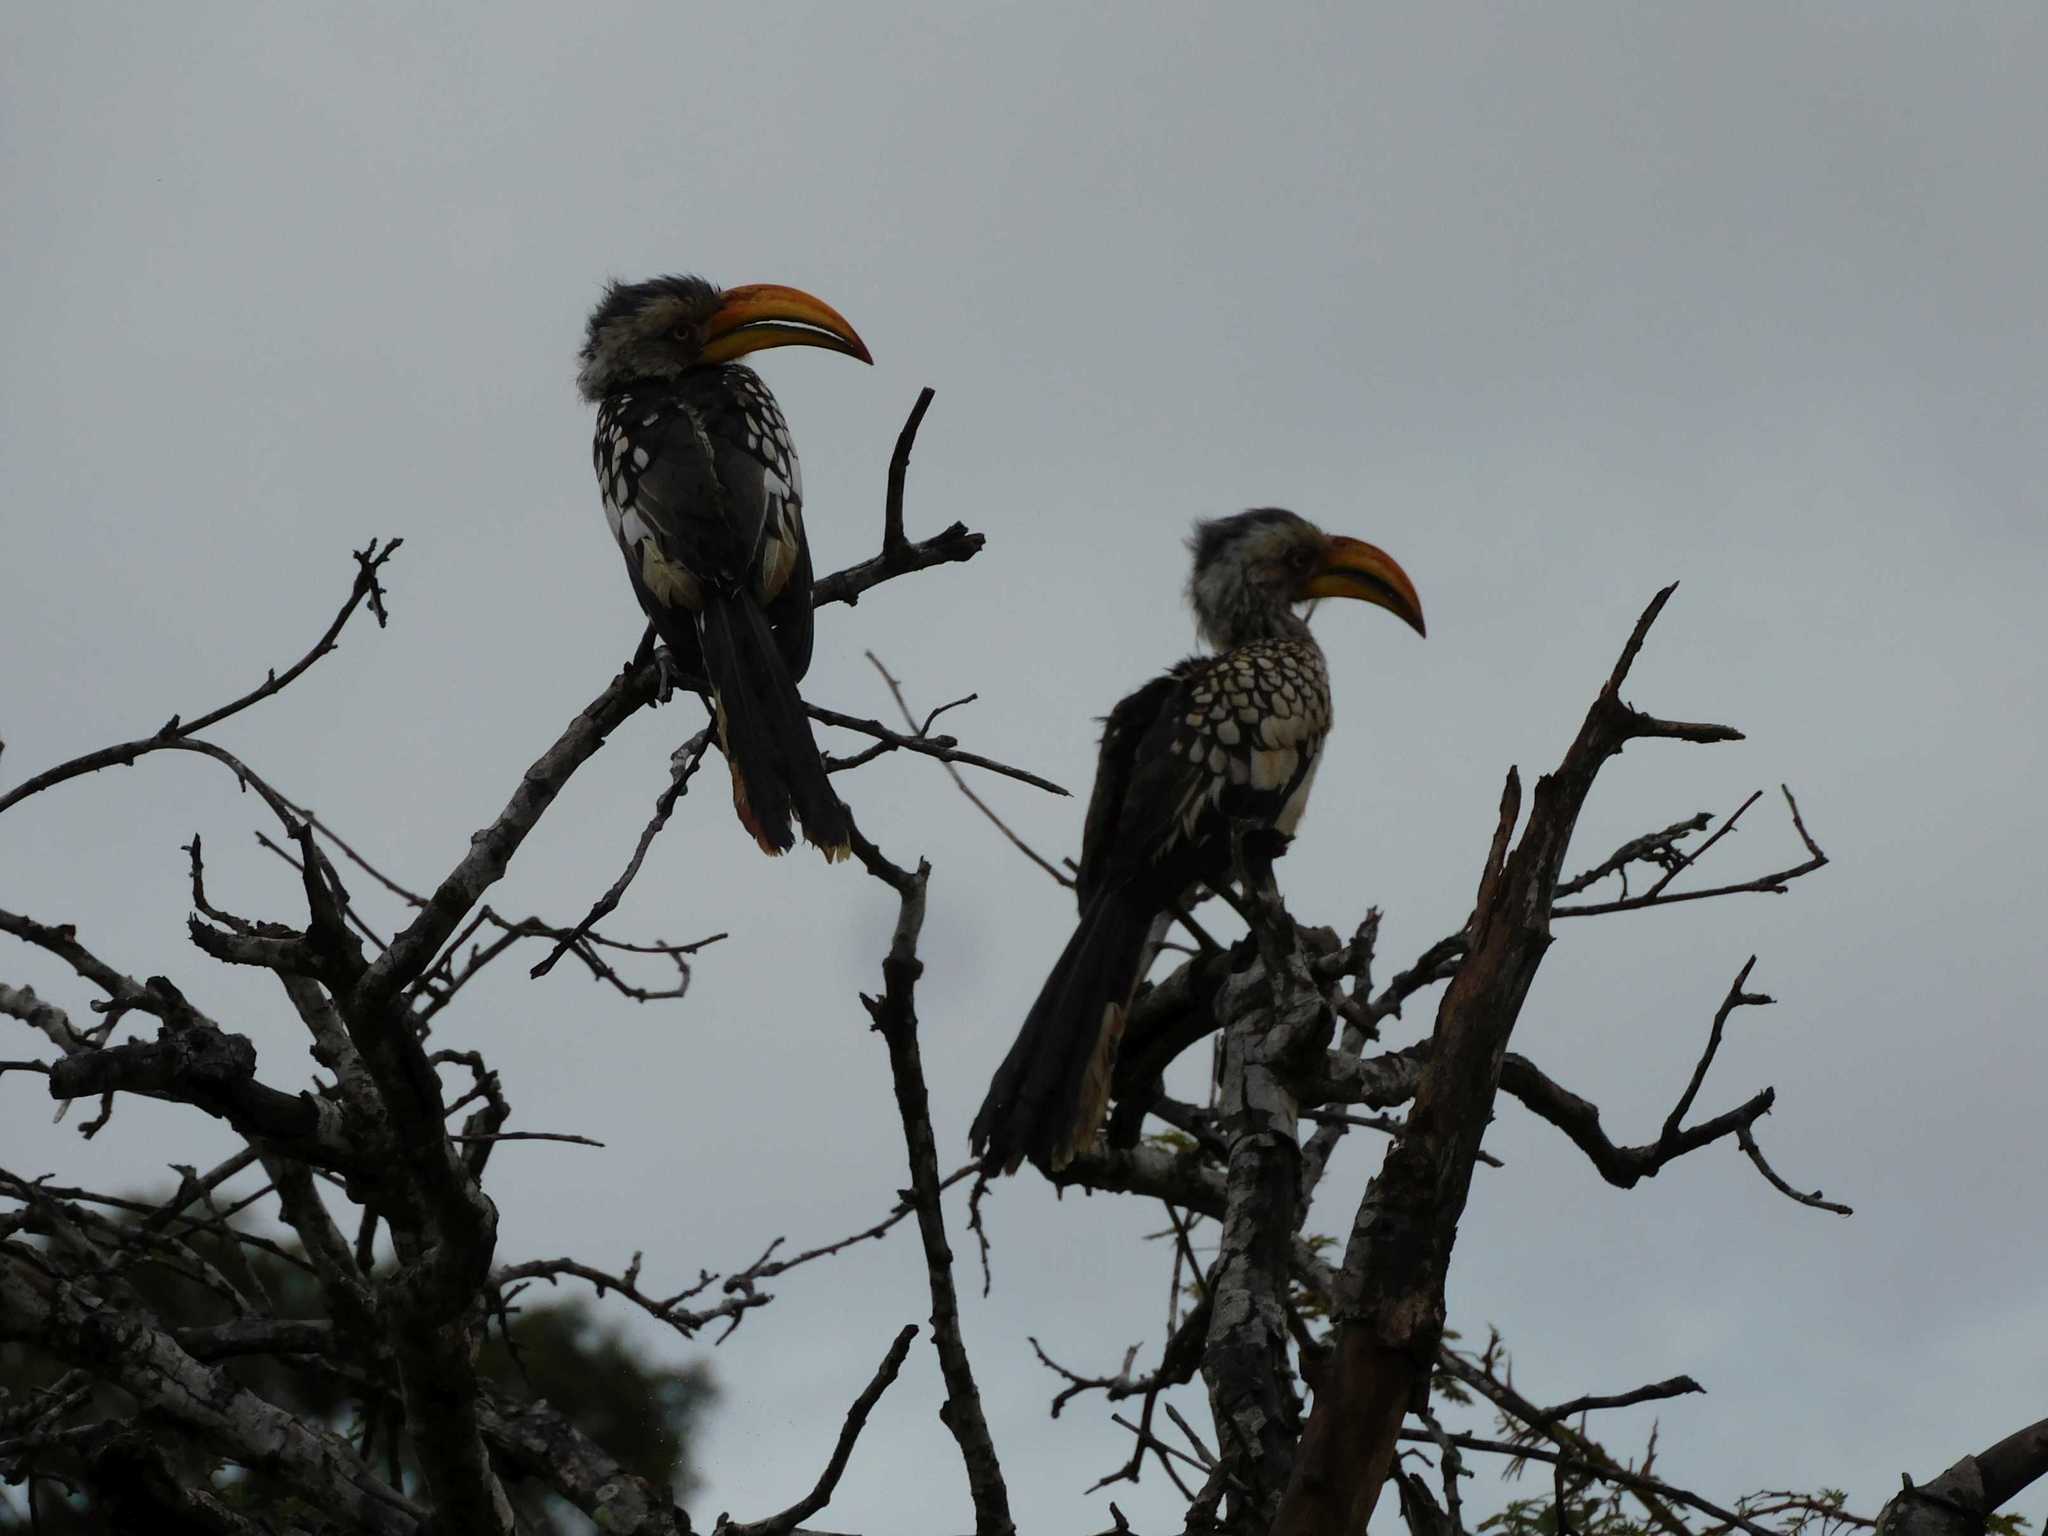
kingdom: Animalia
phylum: Chordata
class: Aves
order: Bucerotiformes
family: Bucerotidae
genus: Tockus
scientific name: Tockus leucomelas
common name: Southern yellow-billed hornbill
